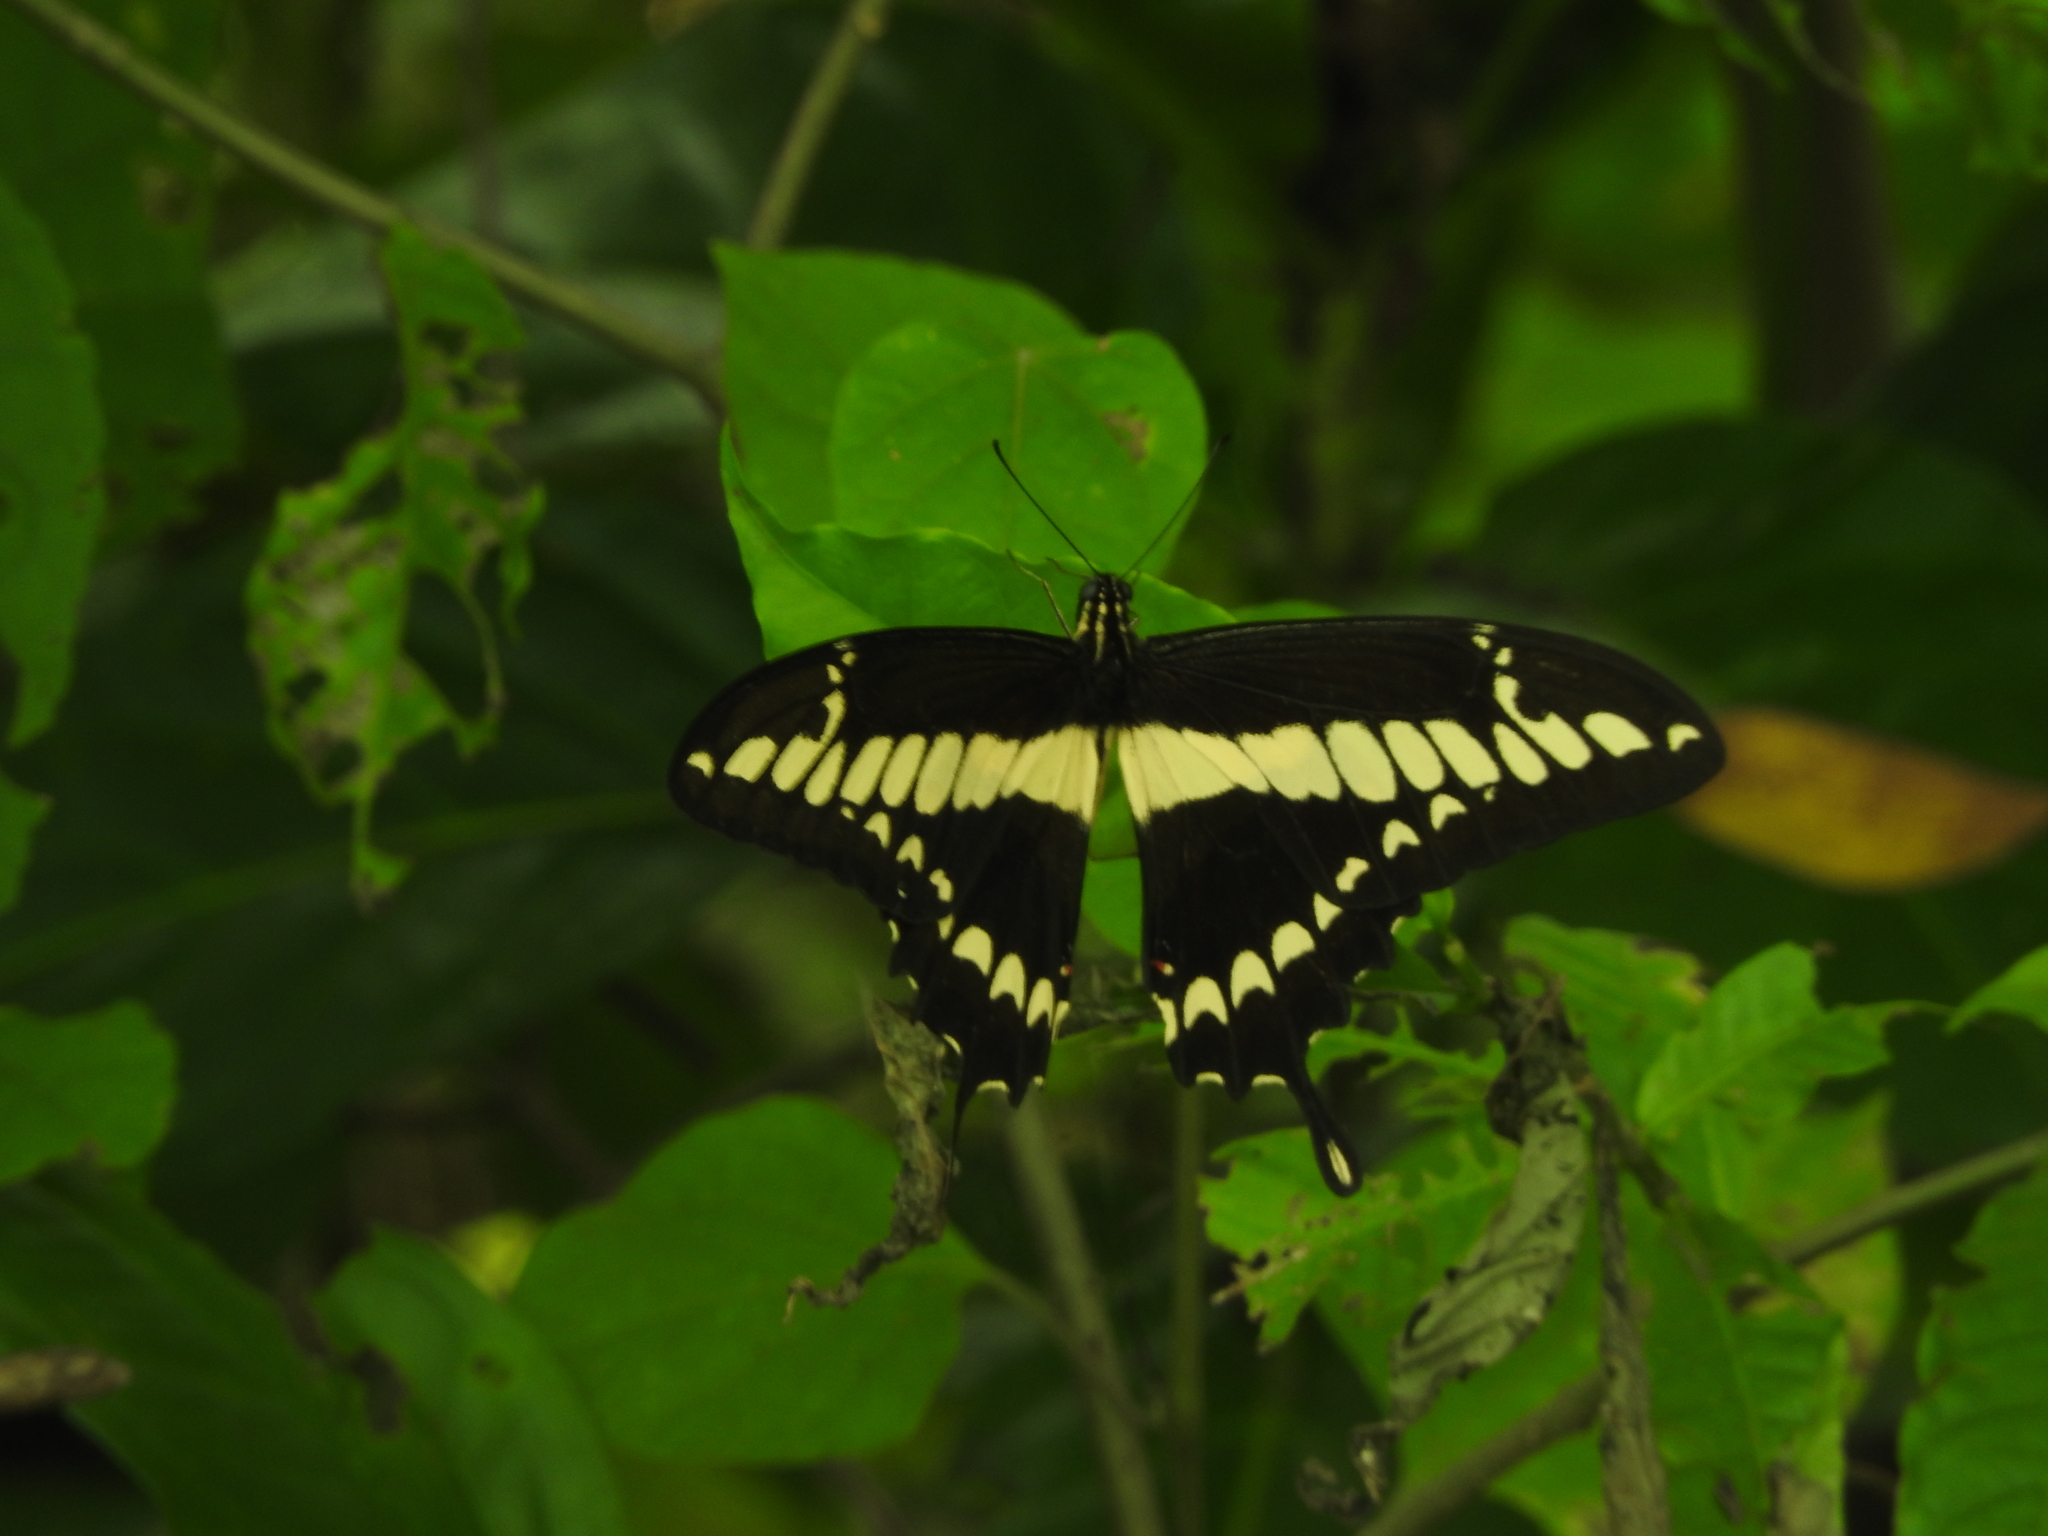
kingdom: Animalia
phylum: Arthropoda
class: Insecta
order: Lepidoptera
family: Papilionidae
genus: Papilio
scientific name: Papilio thoas
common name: King swallowtail
